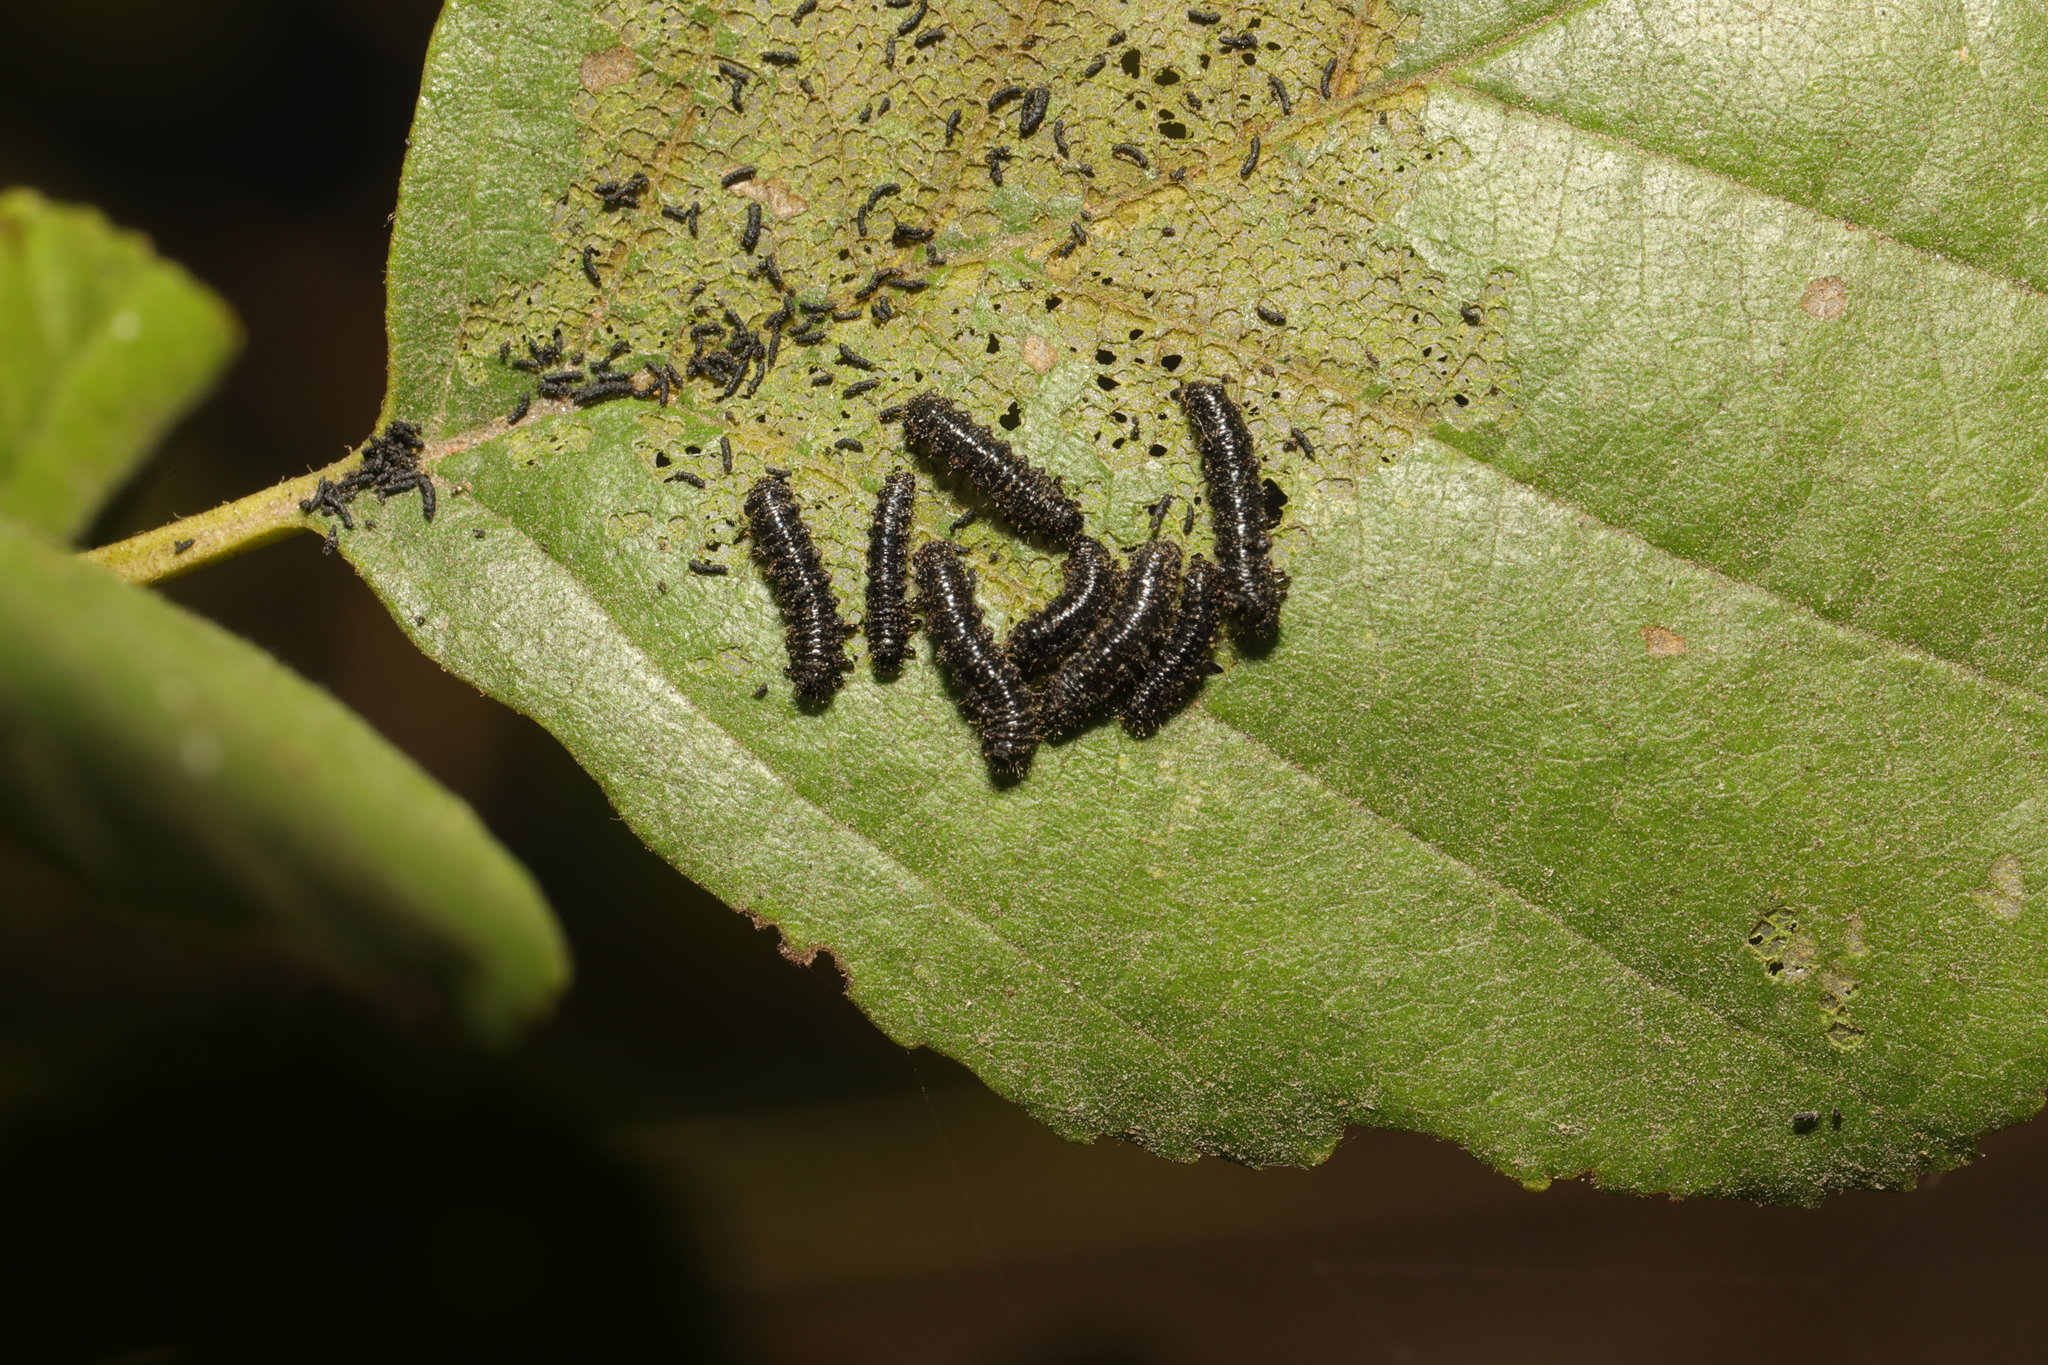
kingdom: Animalia
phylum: Arthropoda
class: Insecta
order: Coleoptera
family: Chrysomelidae
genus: Agelastica
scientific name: Agelastica alni
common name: Alder leaf beetle
